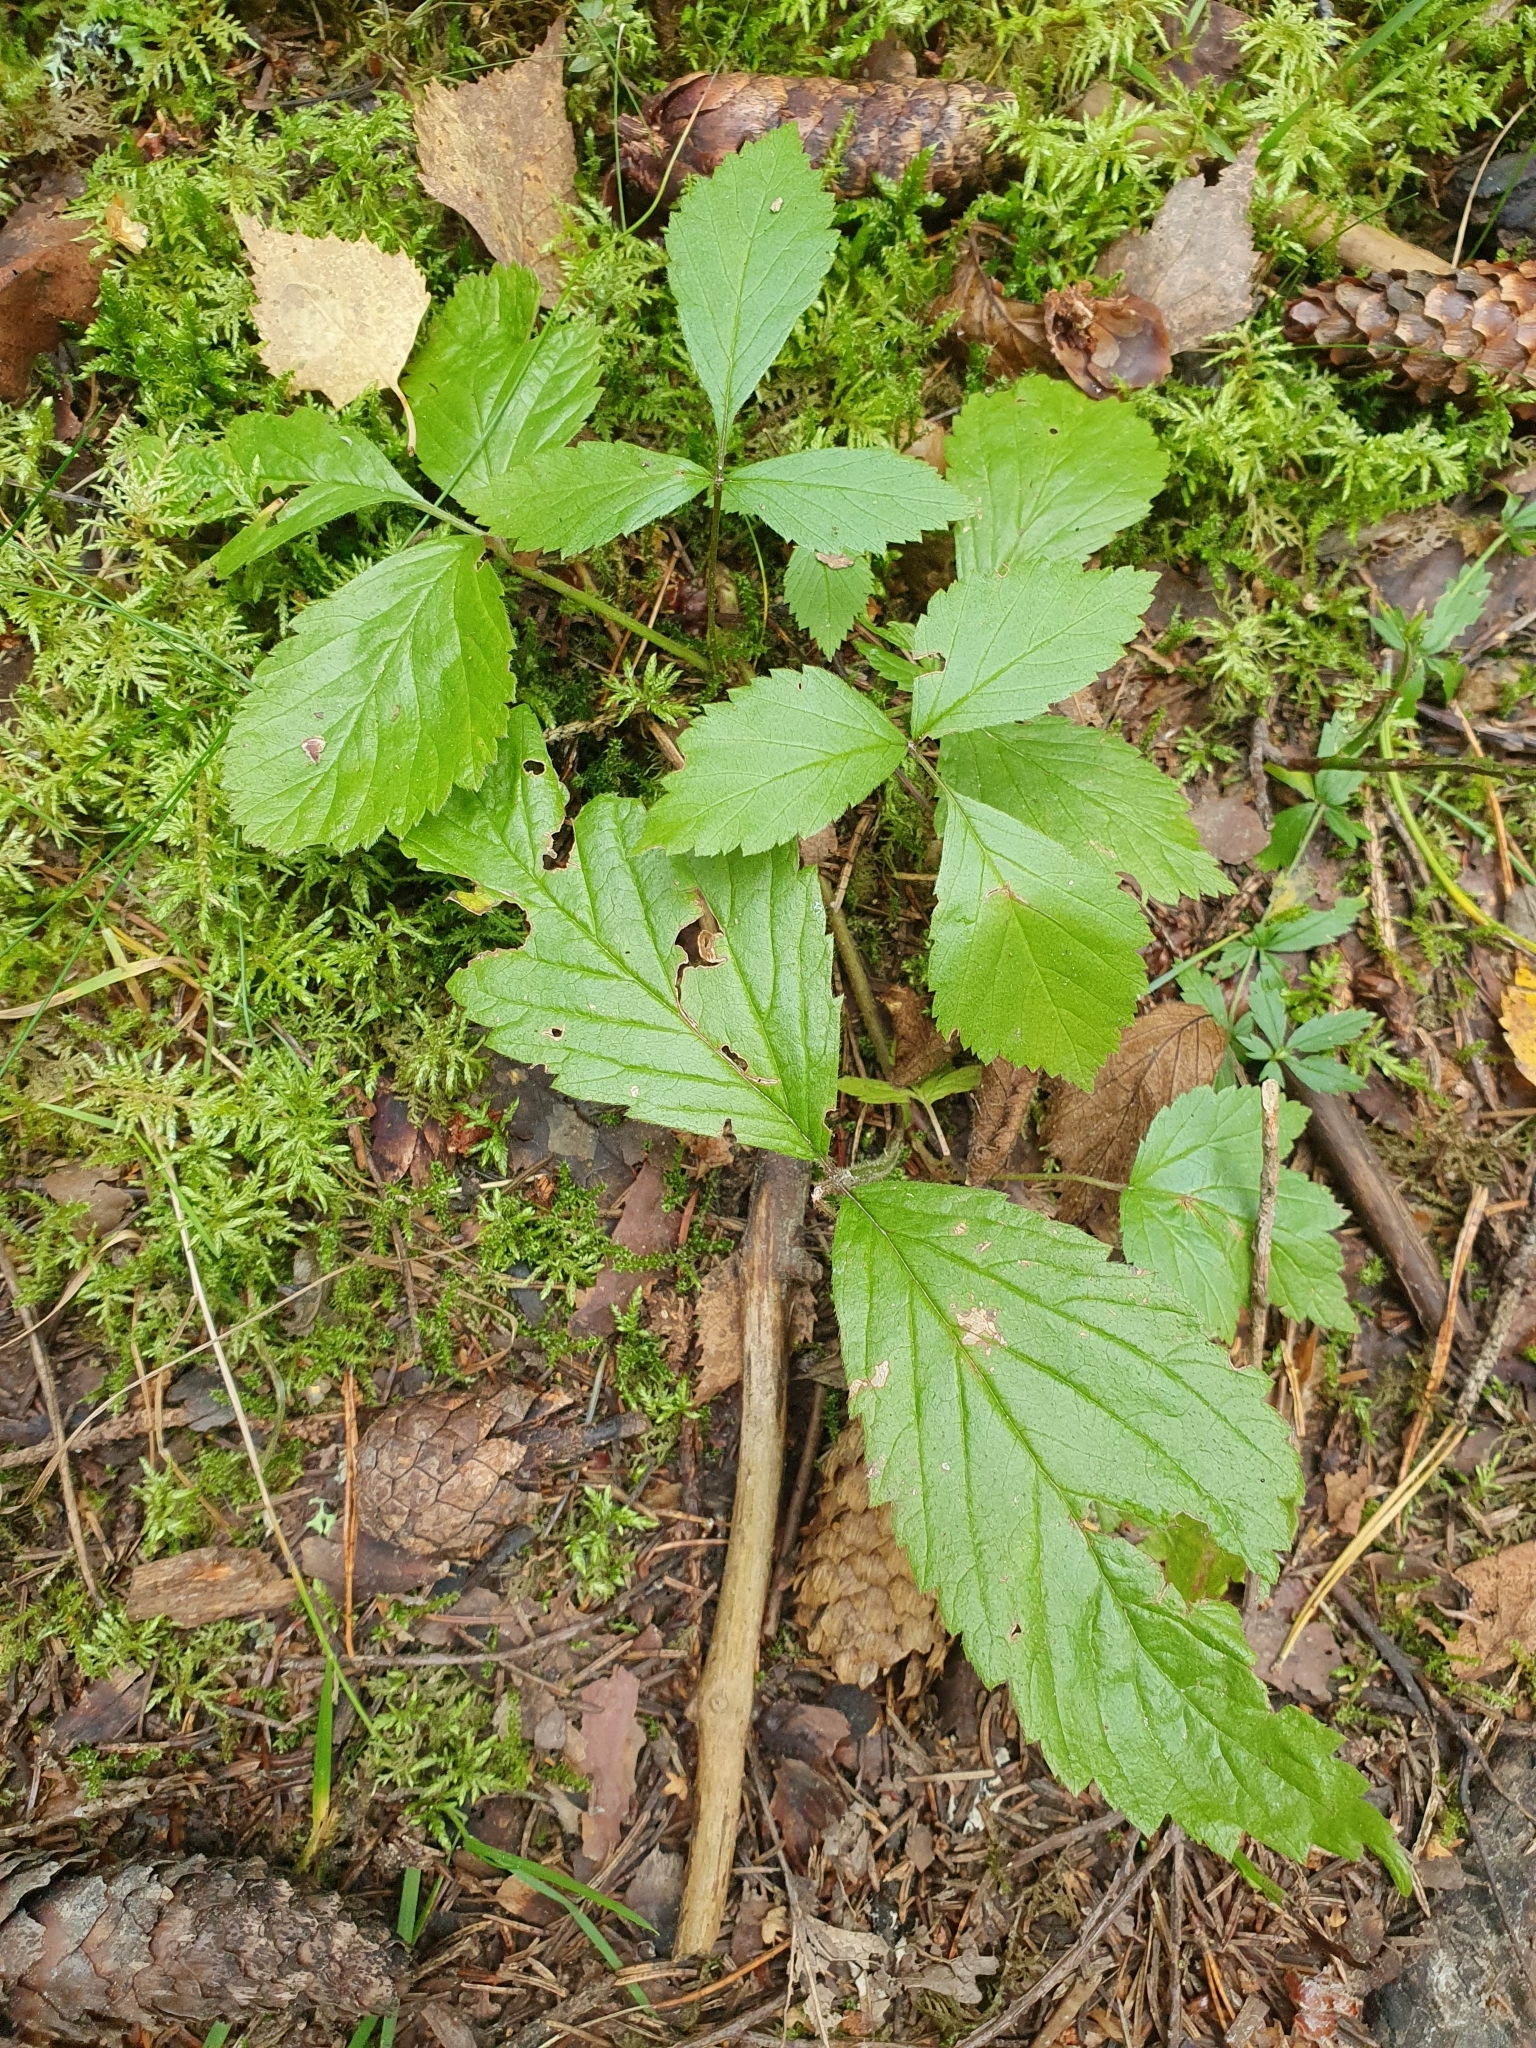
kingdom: Plantae
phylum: Tracheophyta
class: Magnoliopsida
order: Rosales
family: Rosaceae
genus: Rubus
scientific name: Rubus saxatilis
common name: Stone bramble
